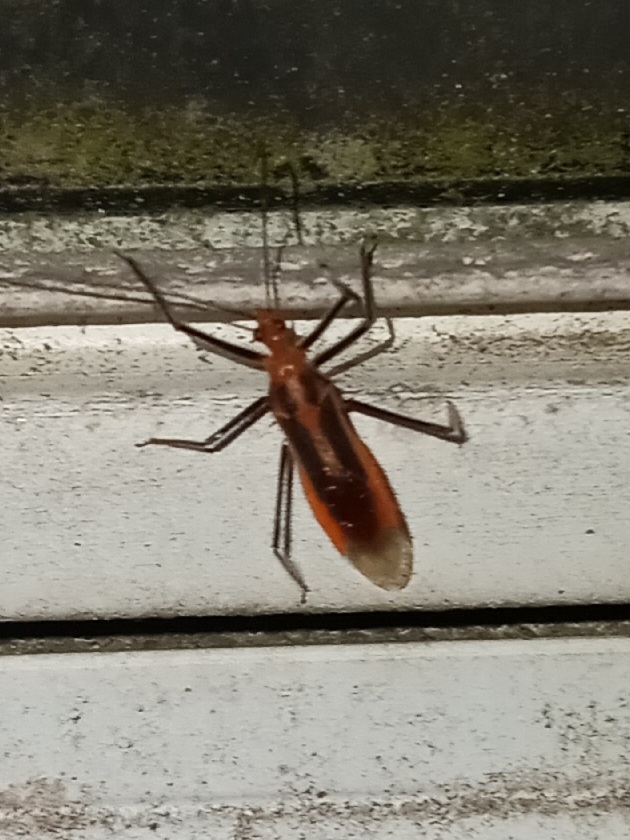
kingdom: Animalia
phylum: Arthropoda
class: Insecta
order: Hemiptera
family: Reduviidae
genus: Repipta
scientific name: Repipta taurus
